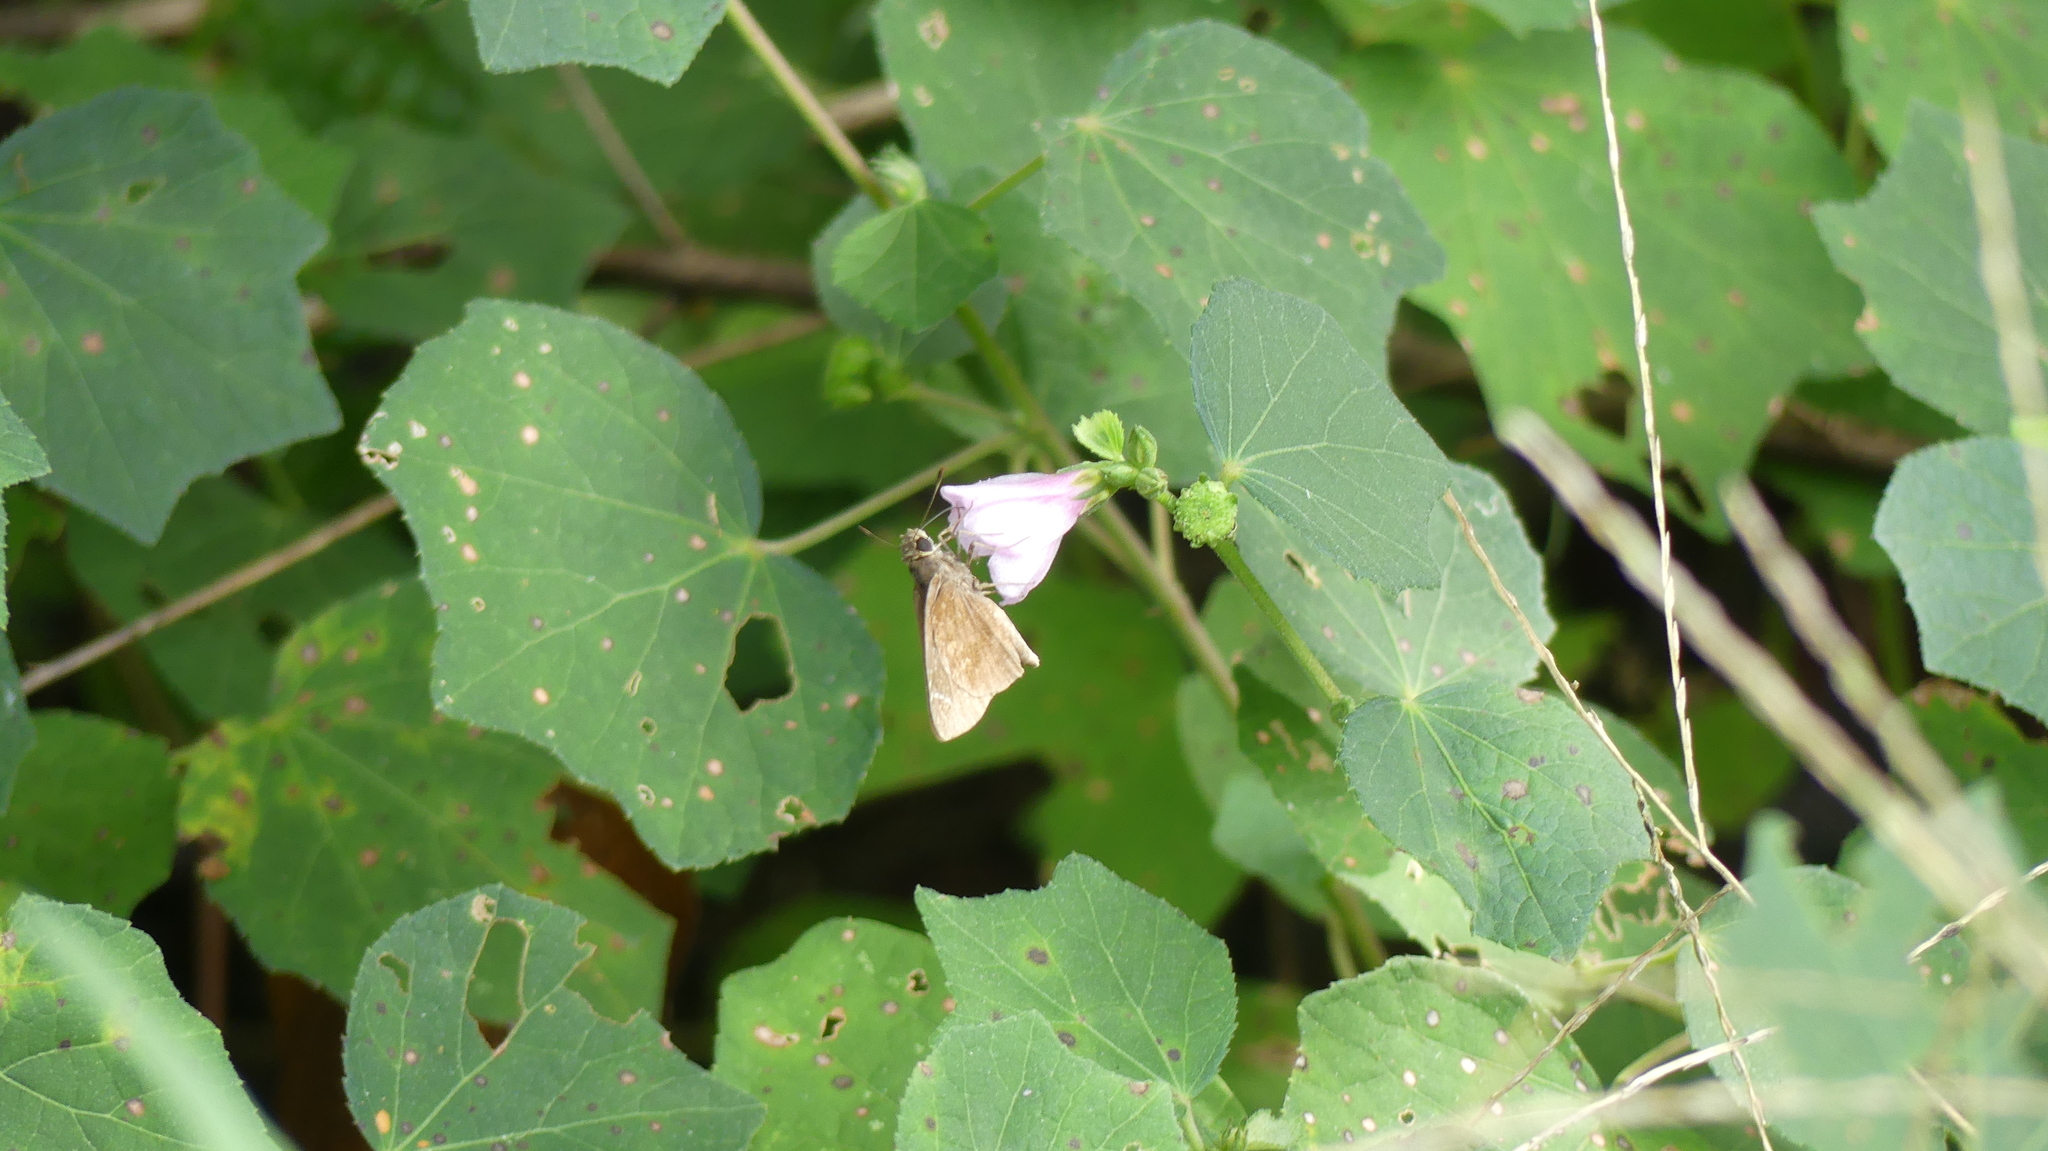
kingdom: Animalia
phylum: Arthropoda
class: Insecta
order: Lepidoptera
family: Hesperiidae
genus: Lerema
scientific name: Lerema accius
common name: Clouded skipper
